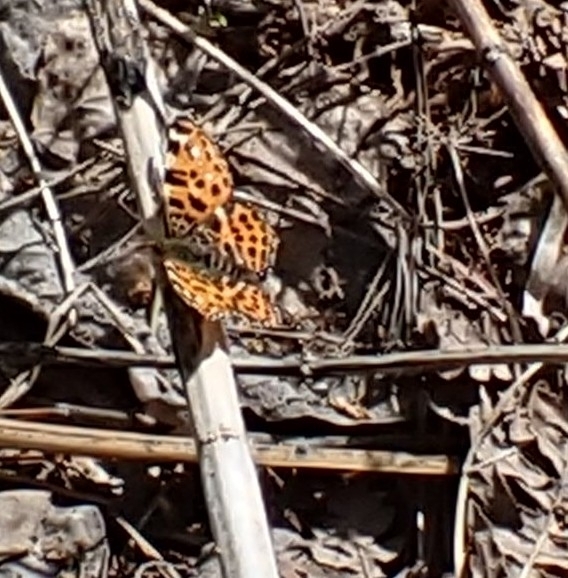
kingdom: Animalia
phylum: Arthropoda
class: Insecta
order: Lepidoptera
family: Nymphalidae
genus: Araschnia
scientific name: Araschnia levana
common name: Map butterfly
